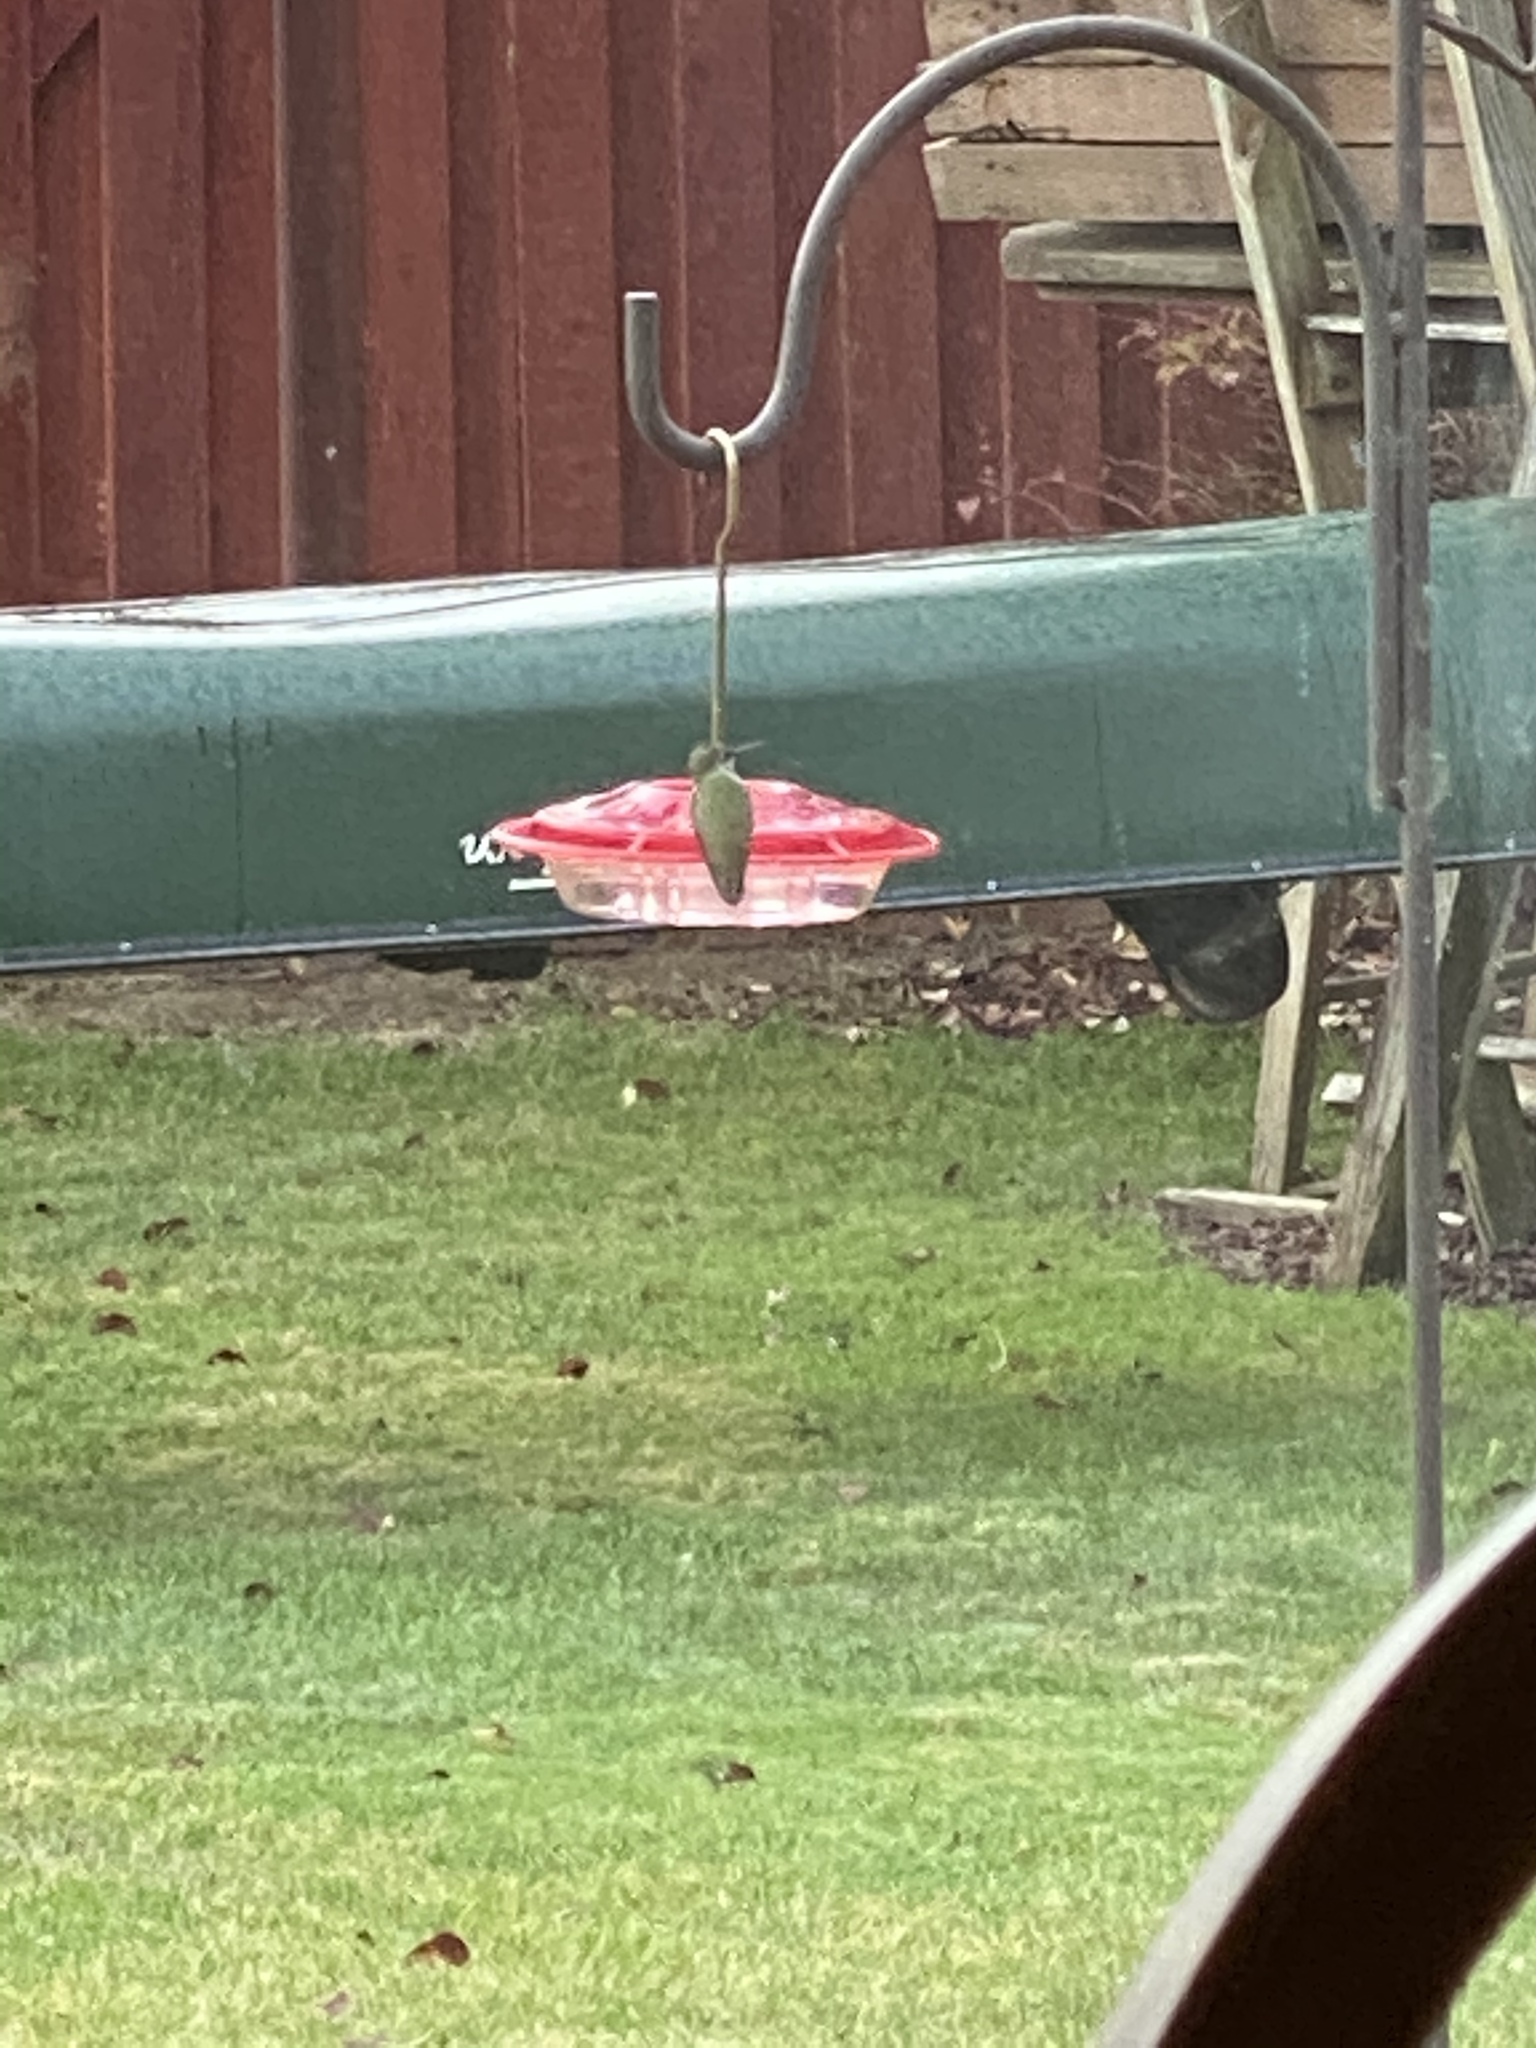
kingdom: Animalia
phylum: Chordata
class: Aves
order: Apodiformes
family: Trochilidae
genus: Calypte
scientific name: Calypte anna
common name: Anna's hummingbird
